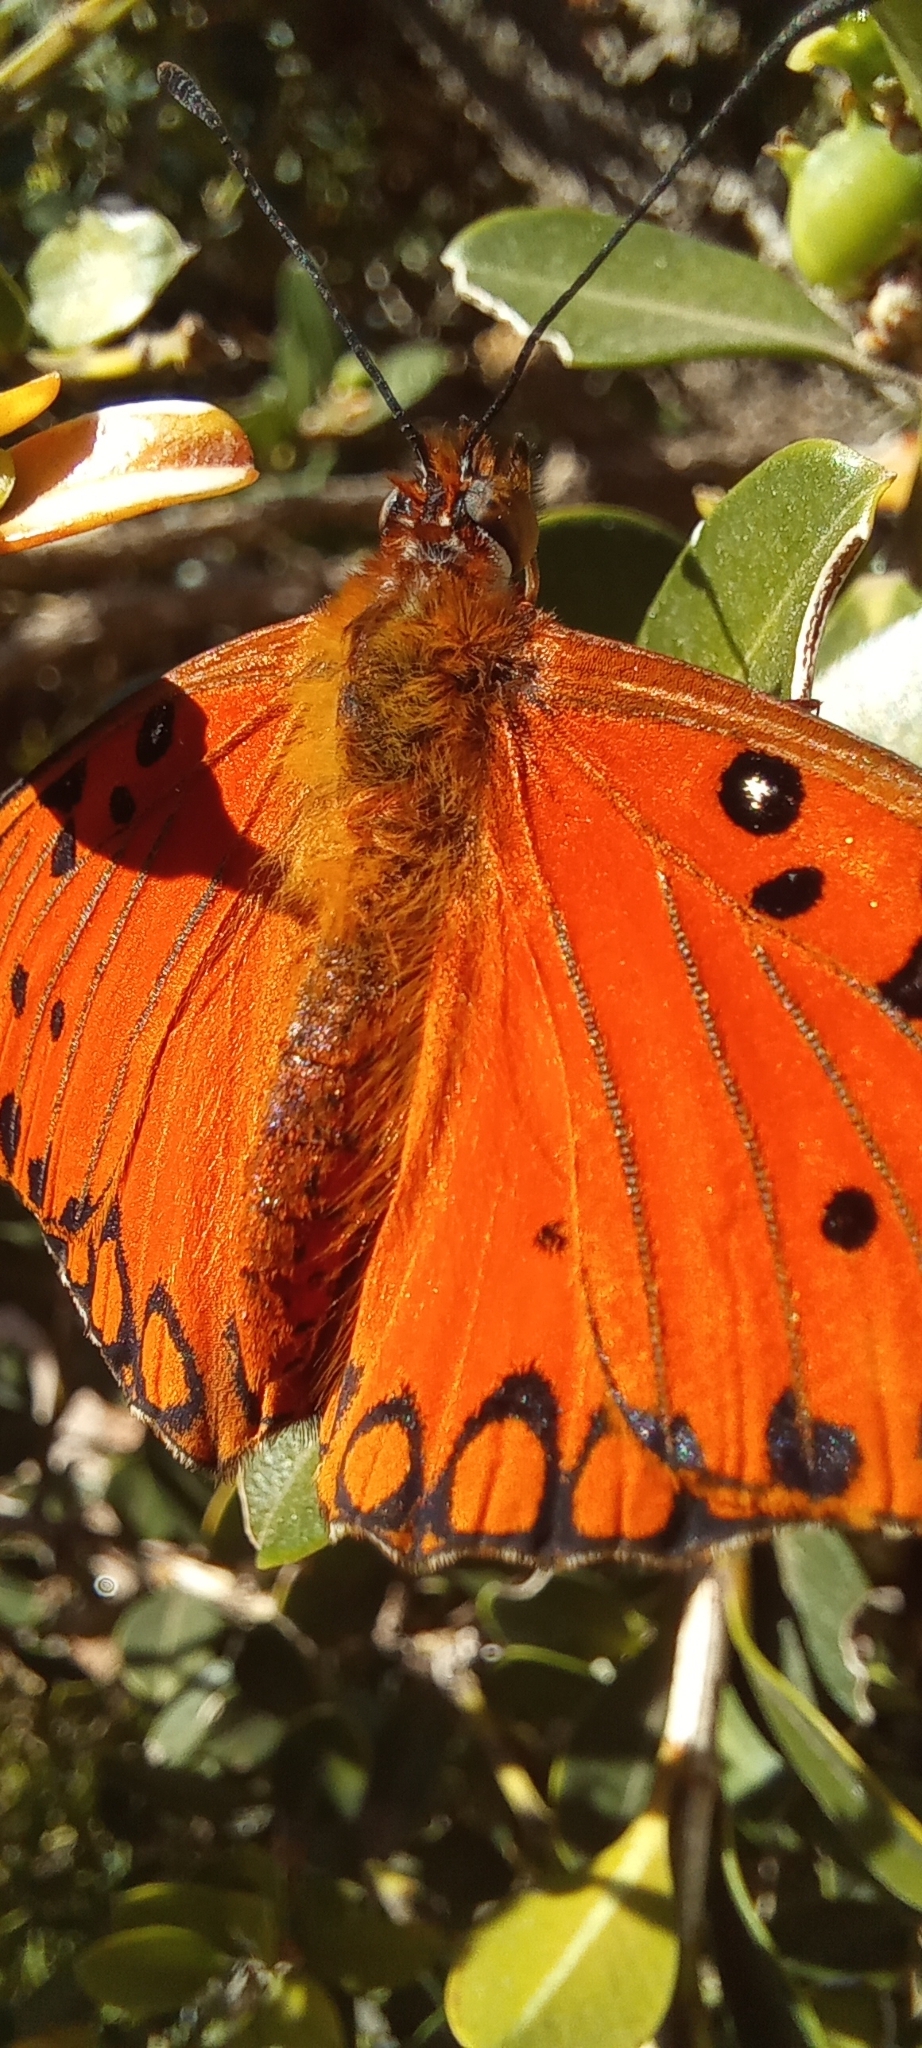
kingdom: Animalia
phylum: Arthropoda
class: Insecta
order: Lepidoptera
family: Nymphalidae
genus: Dione
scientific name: Dione vanillae
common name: Gulf fritillary
